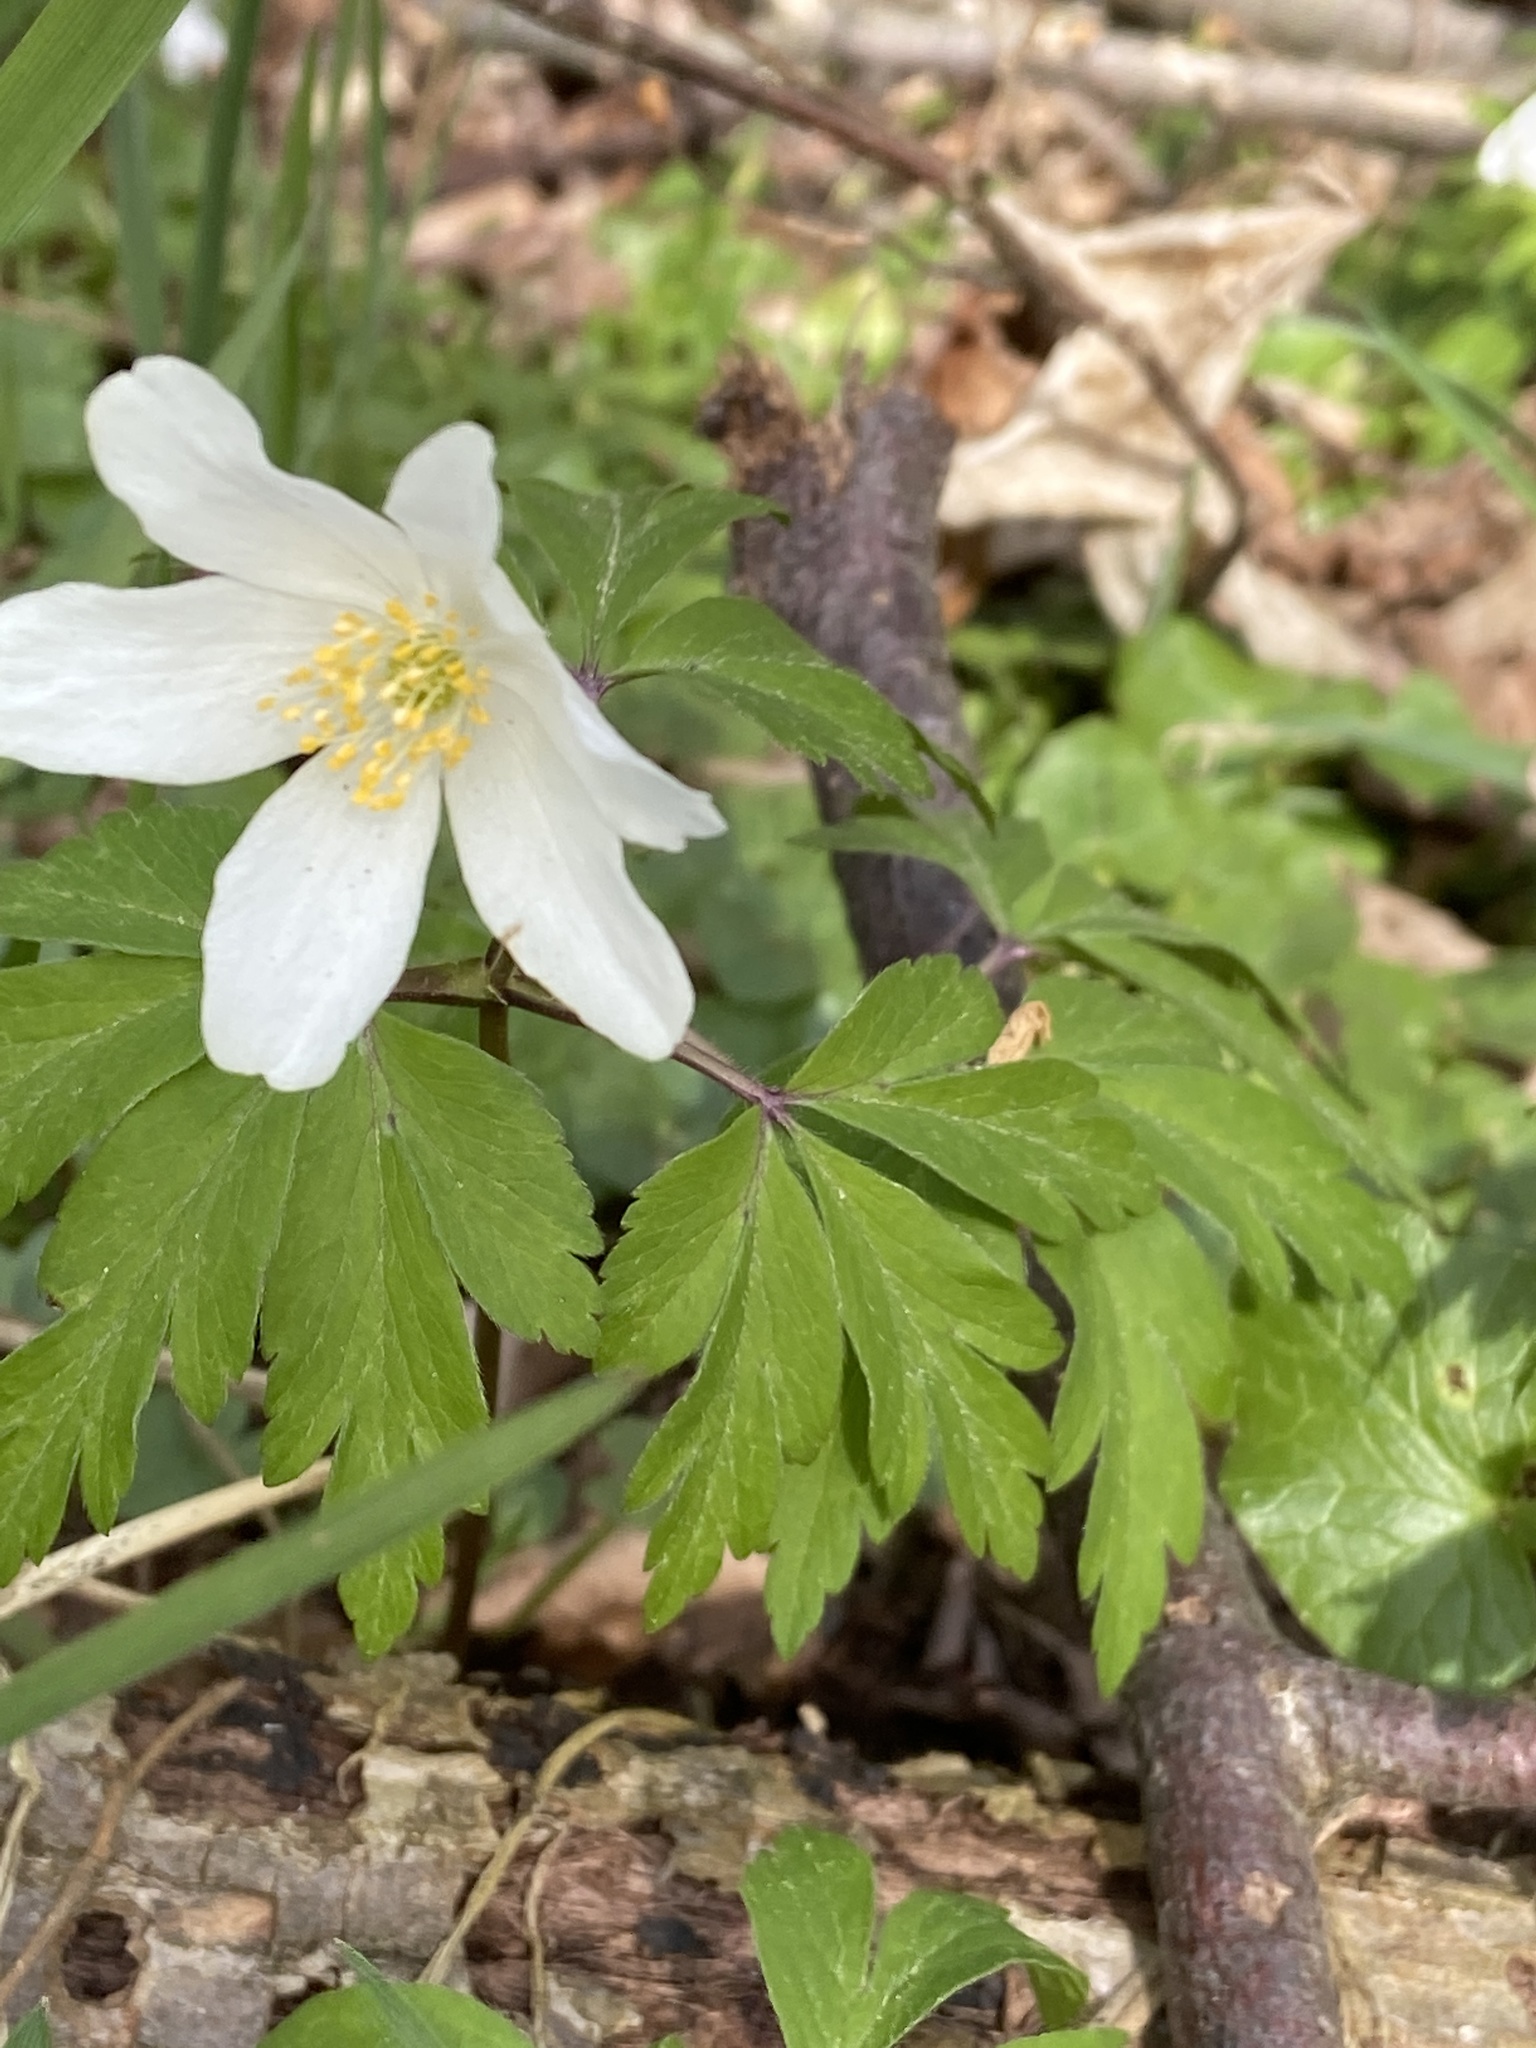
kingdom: Plantae
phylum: Tracheophyta
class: Magnoliopsida
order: Ranunculales
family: Ranunculaceae
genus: Anemone
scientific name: Anemone nemorosa
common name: Wood anemone
